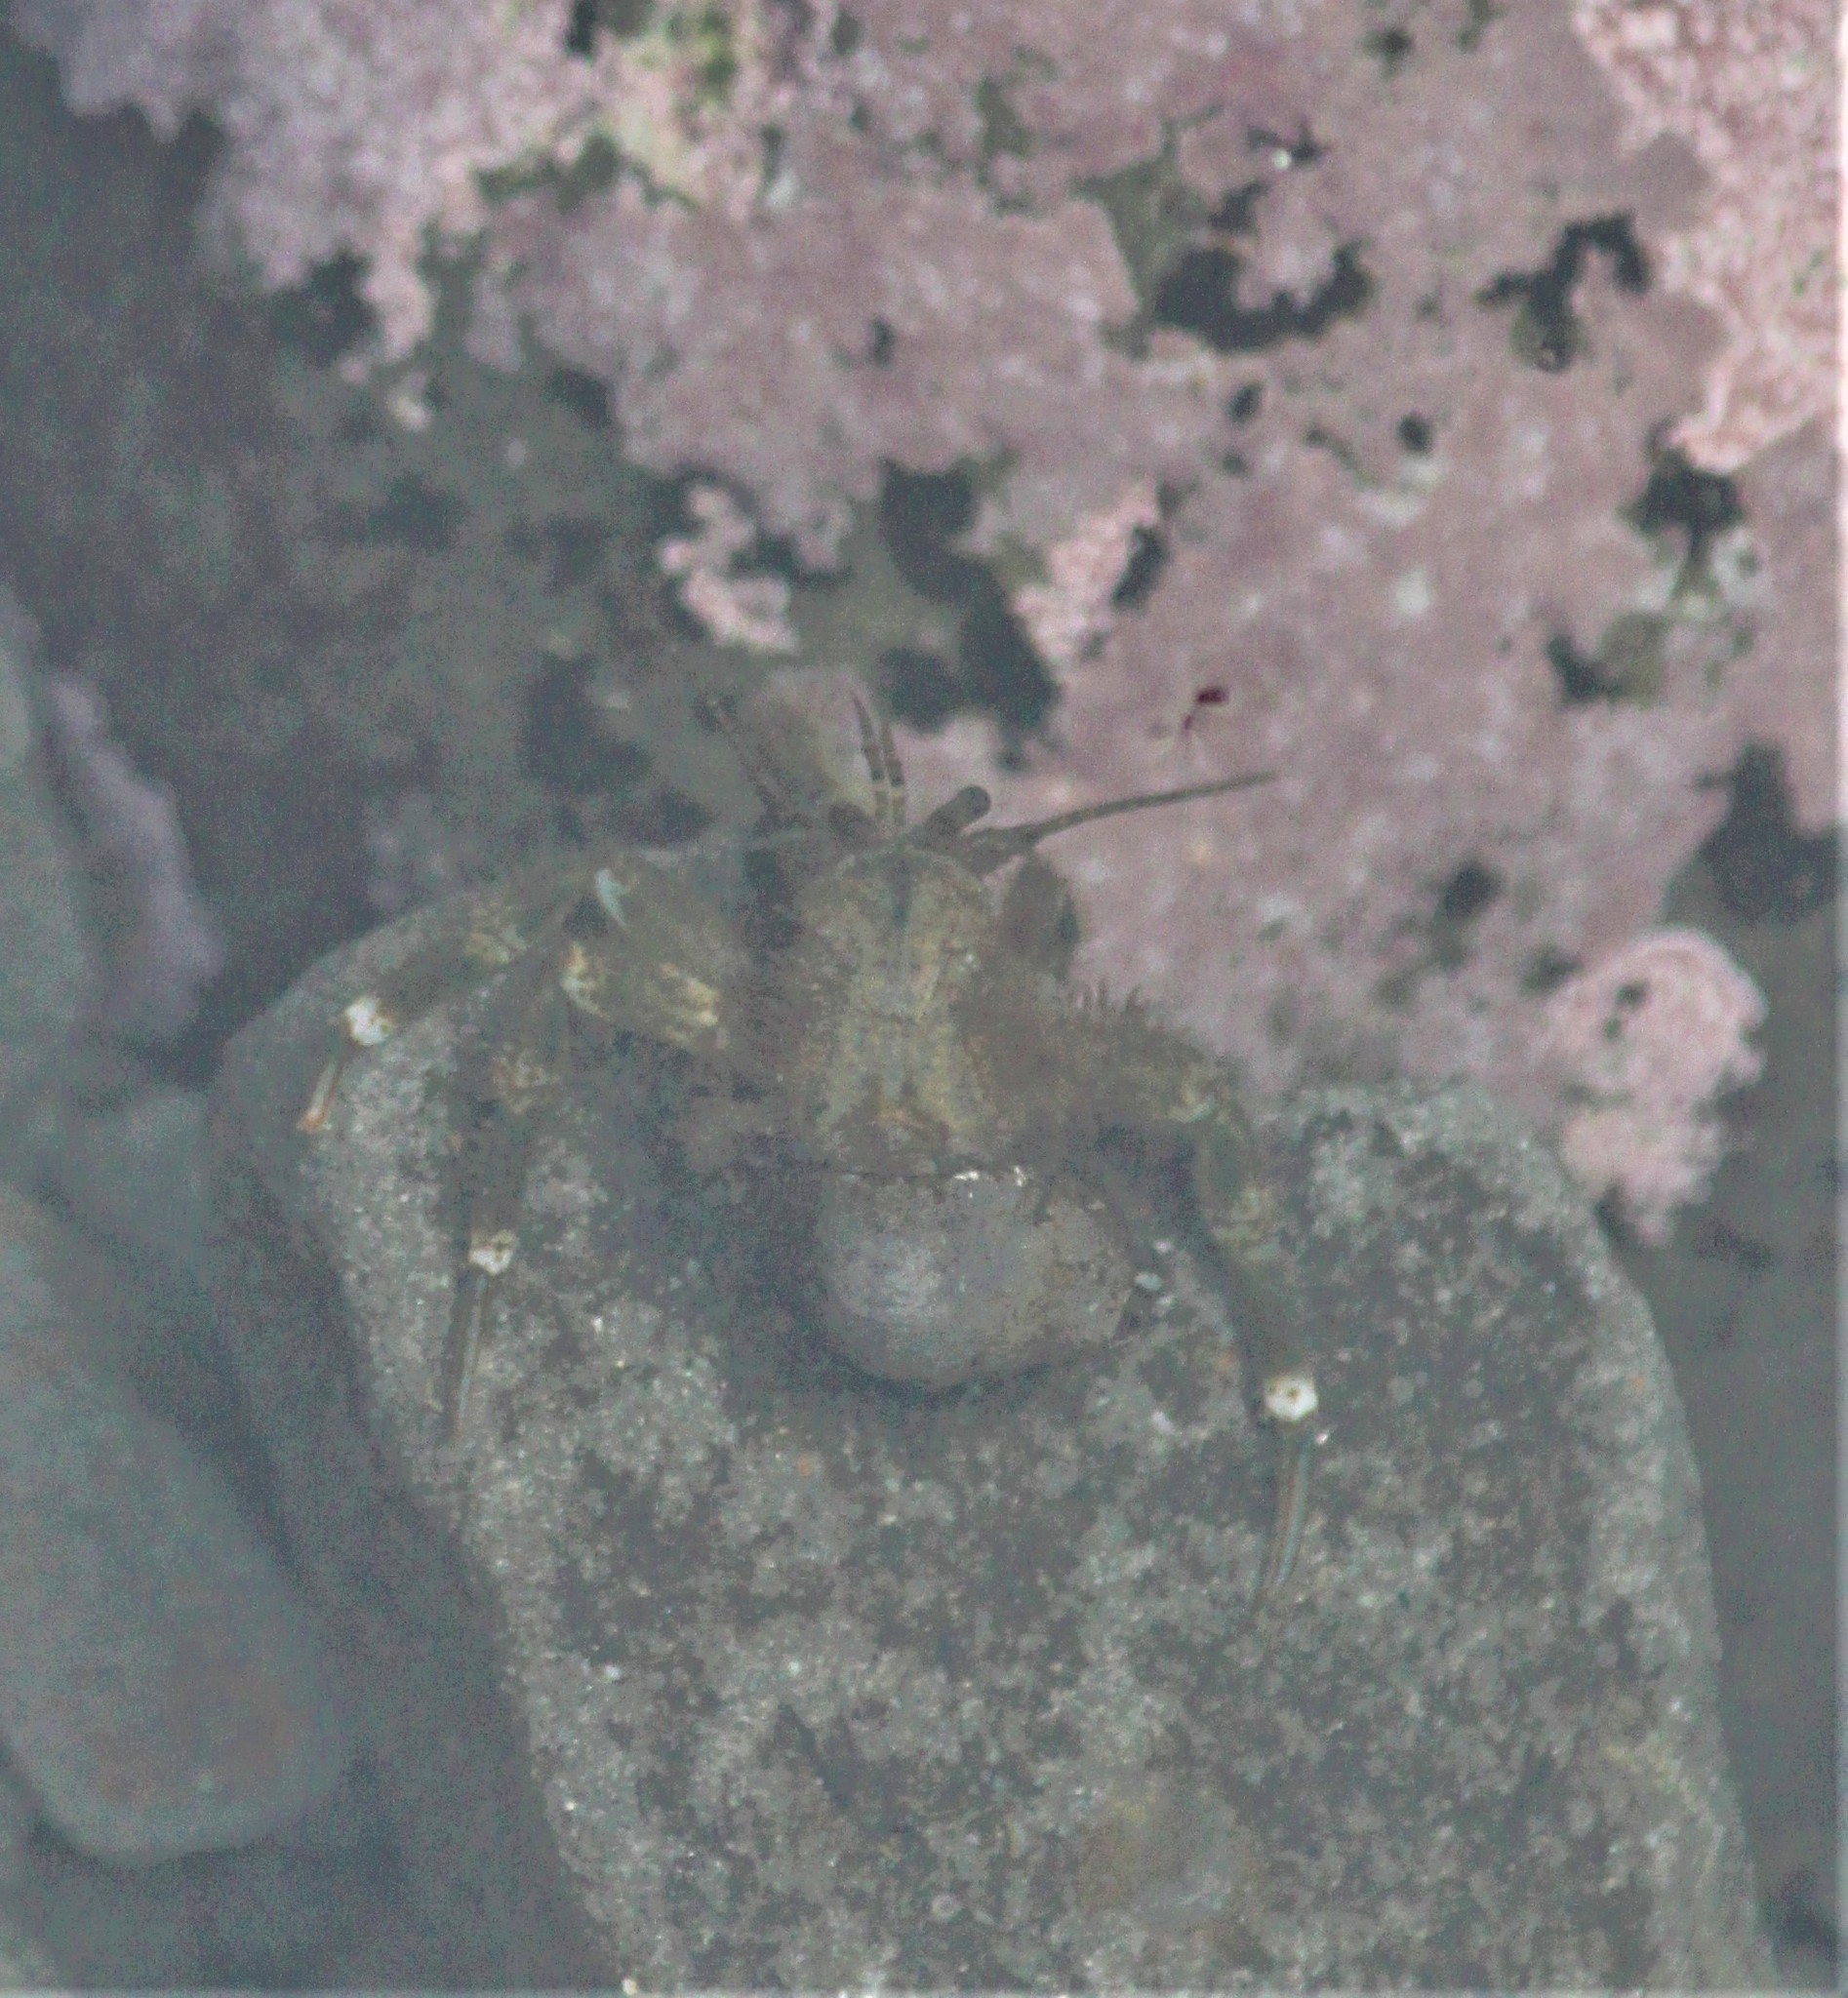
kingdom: Animalia
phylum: Arthropoda
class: Malacostraca
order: Decapoda
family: Paguridae
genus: Pagurus
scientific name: Pagurus hirsutiusculus
